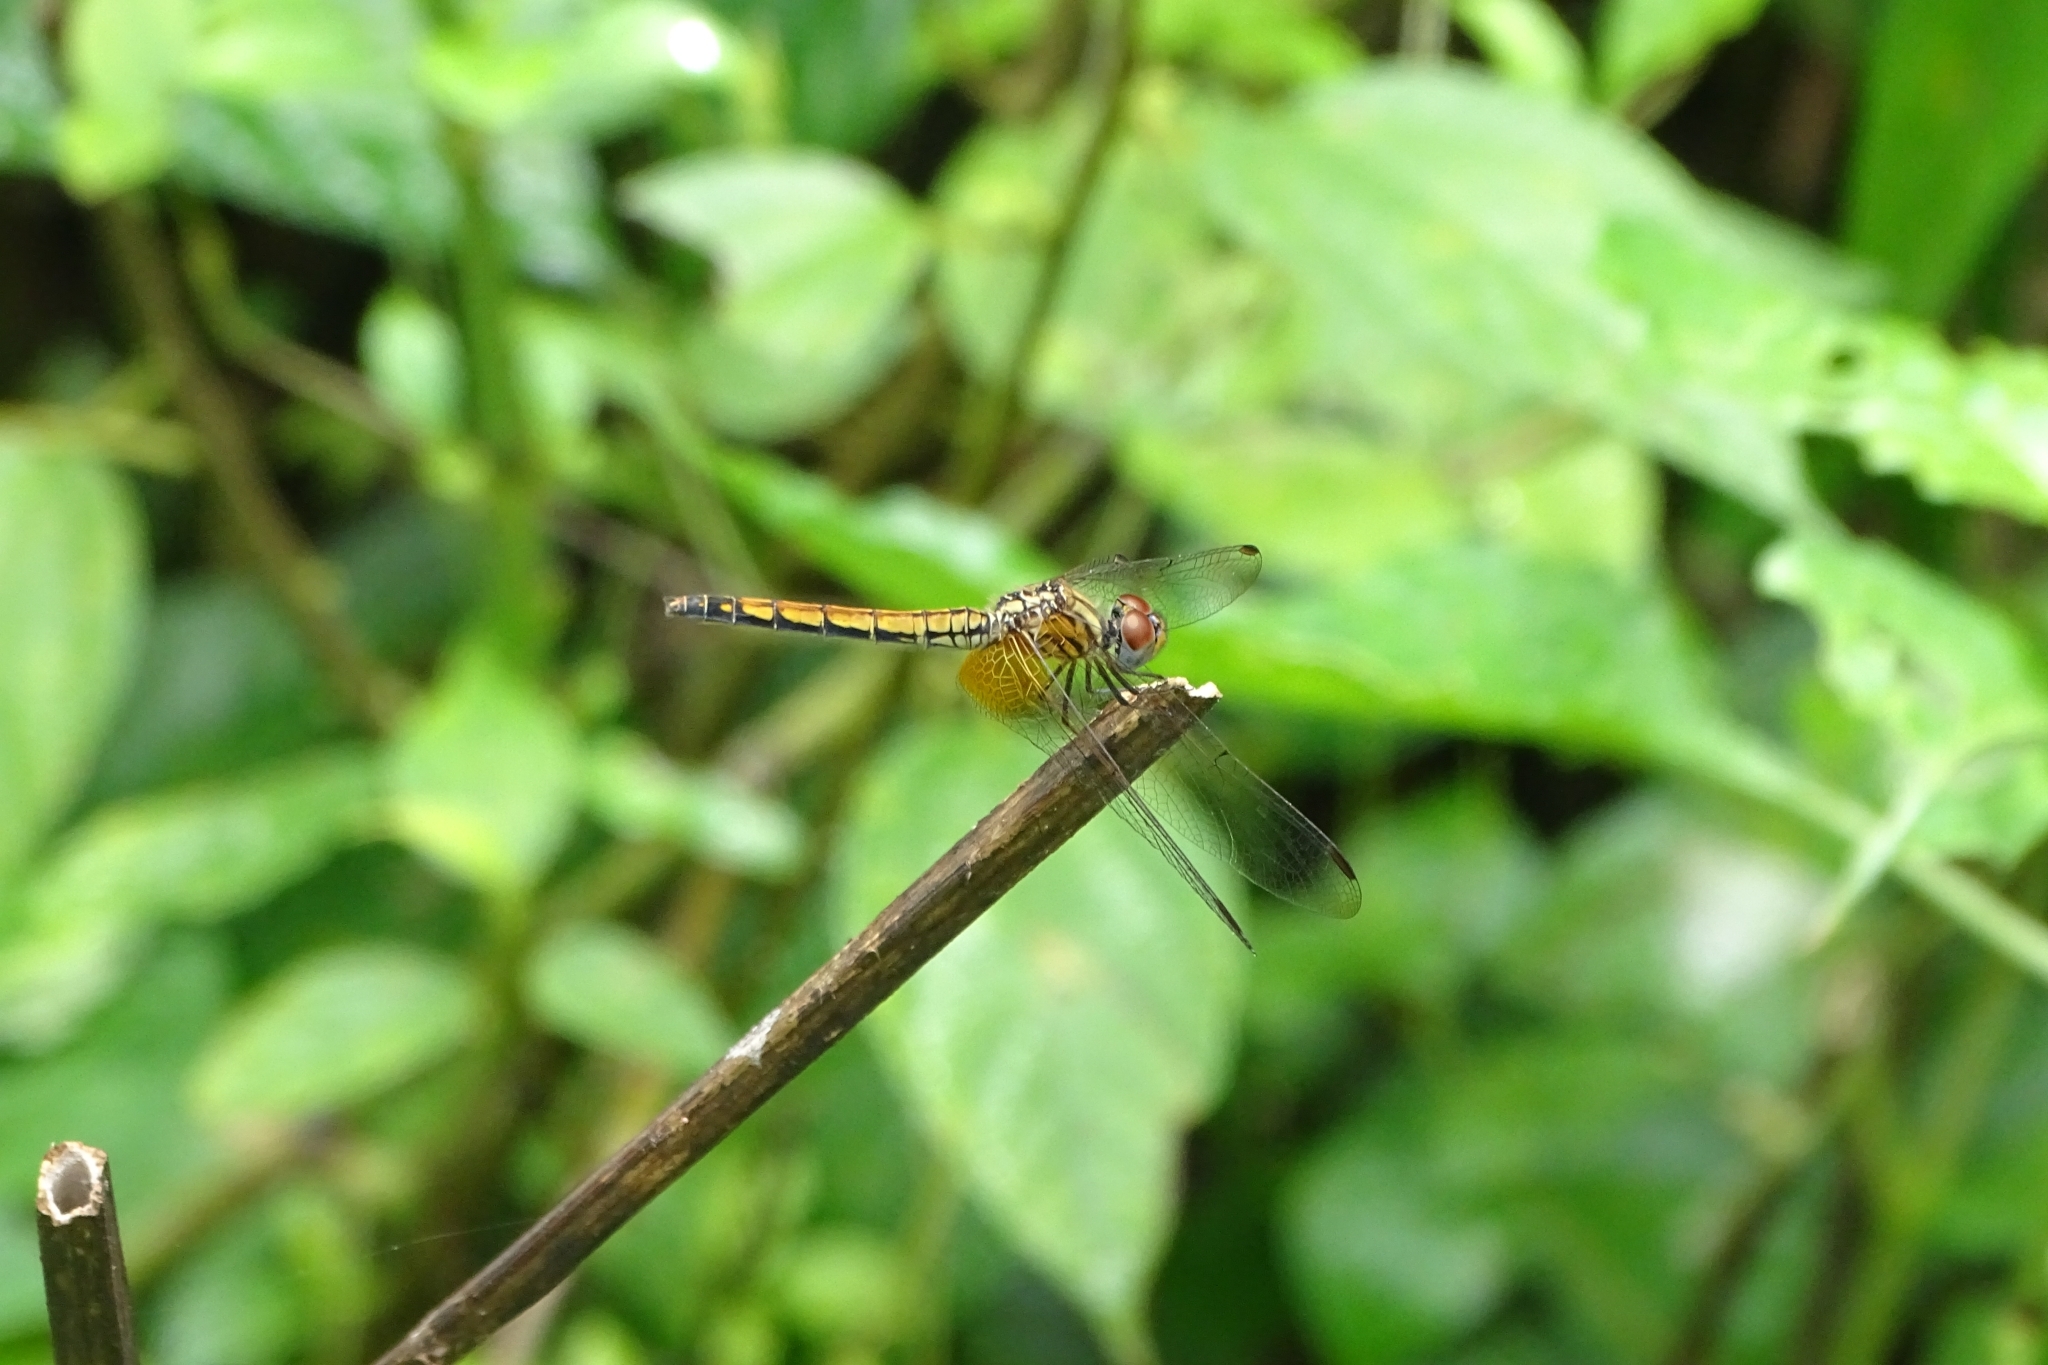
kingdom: Animalia
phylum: Arthropoda
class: Insecta
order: Odonata
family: Libellulidae
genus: Trithemis
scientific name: Trithemis aurora
